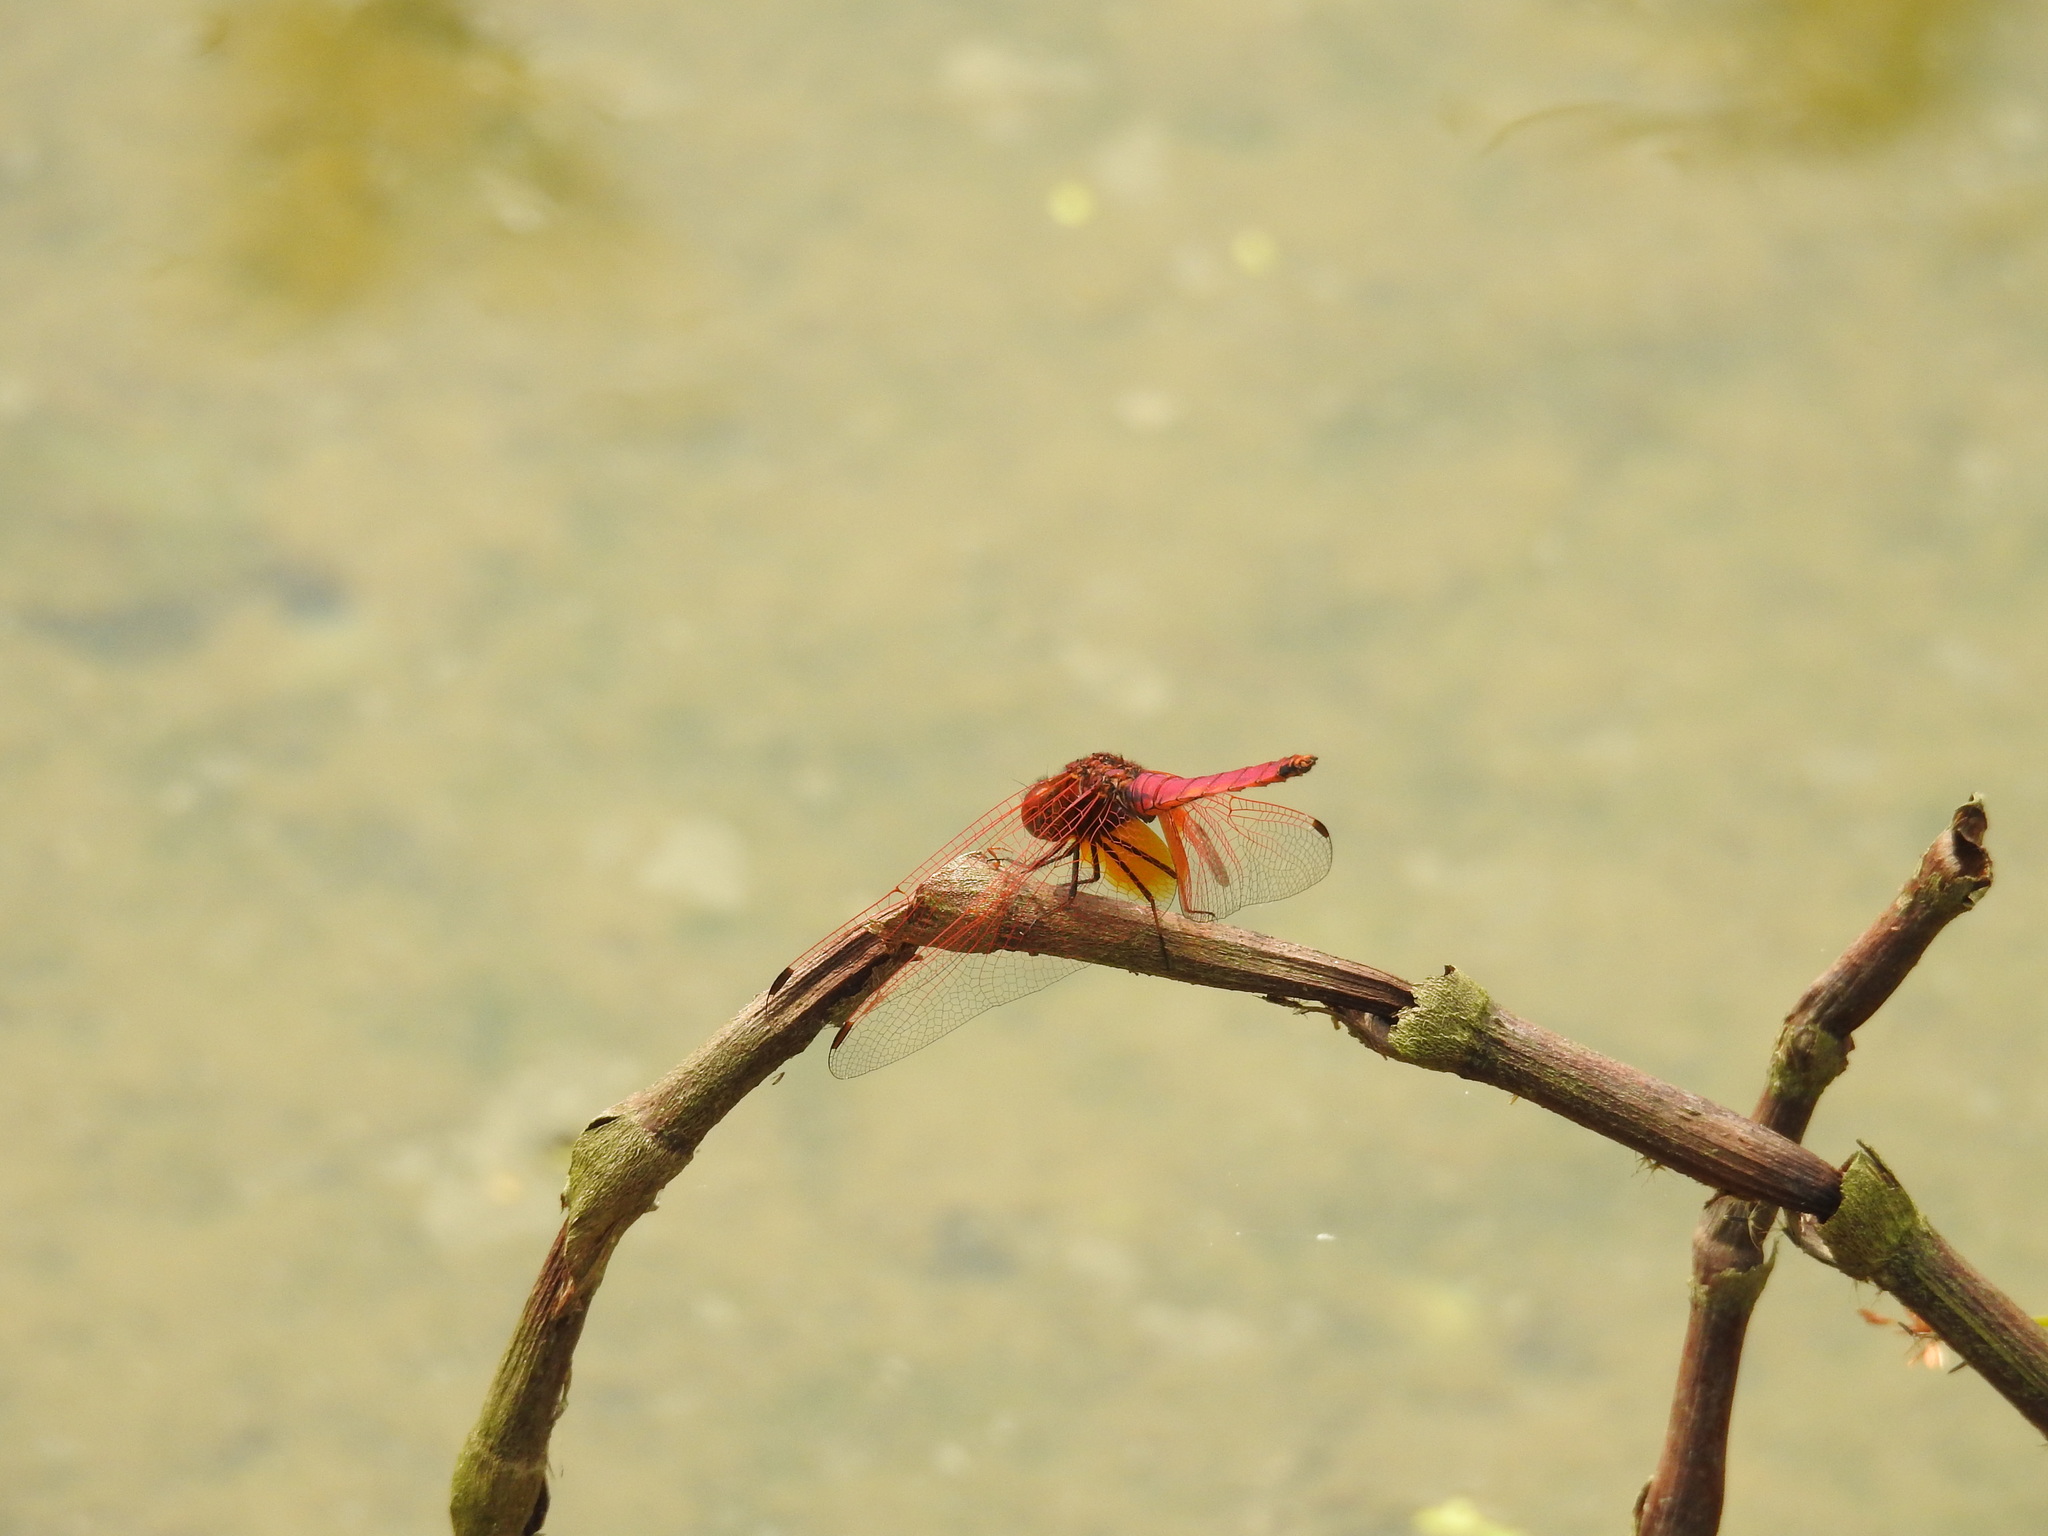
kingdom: Animalia
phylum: Arthropoda
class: Insecta
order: Odonata
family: Libellulidae
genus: Trithemis
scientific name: Trithemis aurora
